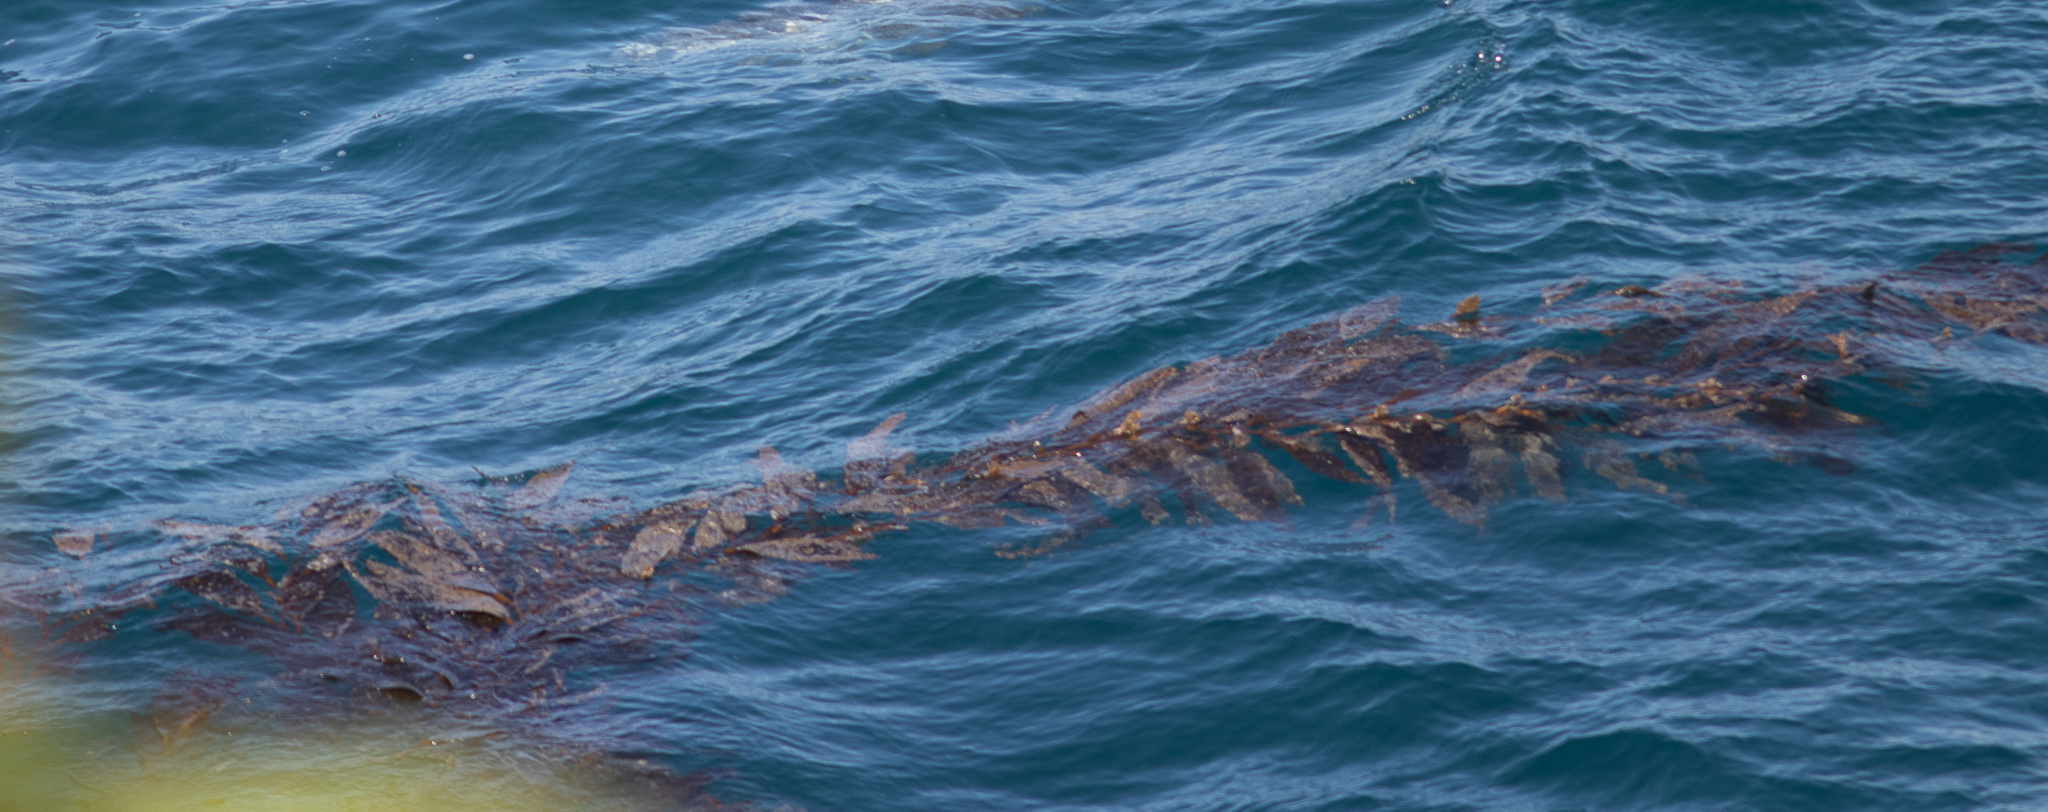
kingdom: Chromista
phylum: Ochrophyta
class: Phaeophyceae
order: Laminariales
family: Laminariaceae
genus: Macrocystis
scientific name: Macrocystis pyrifera
